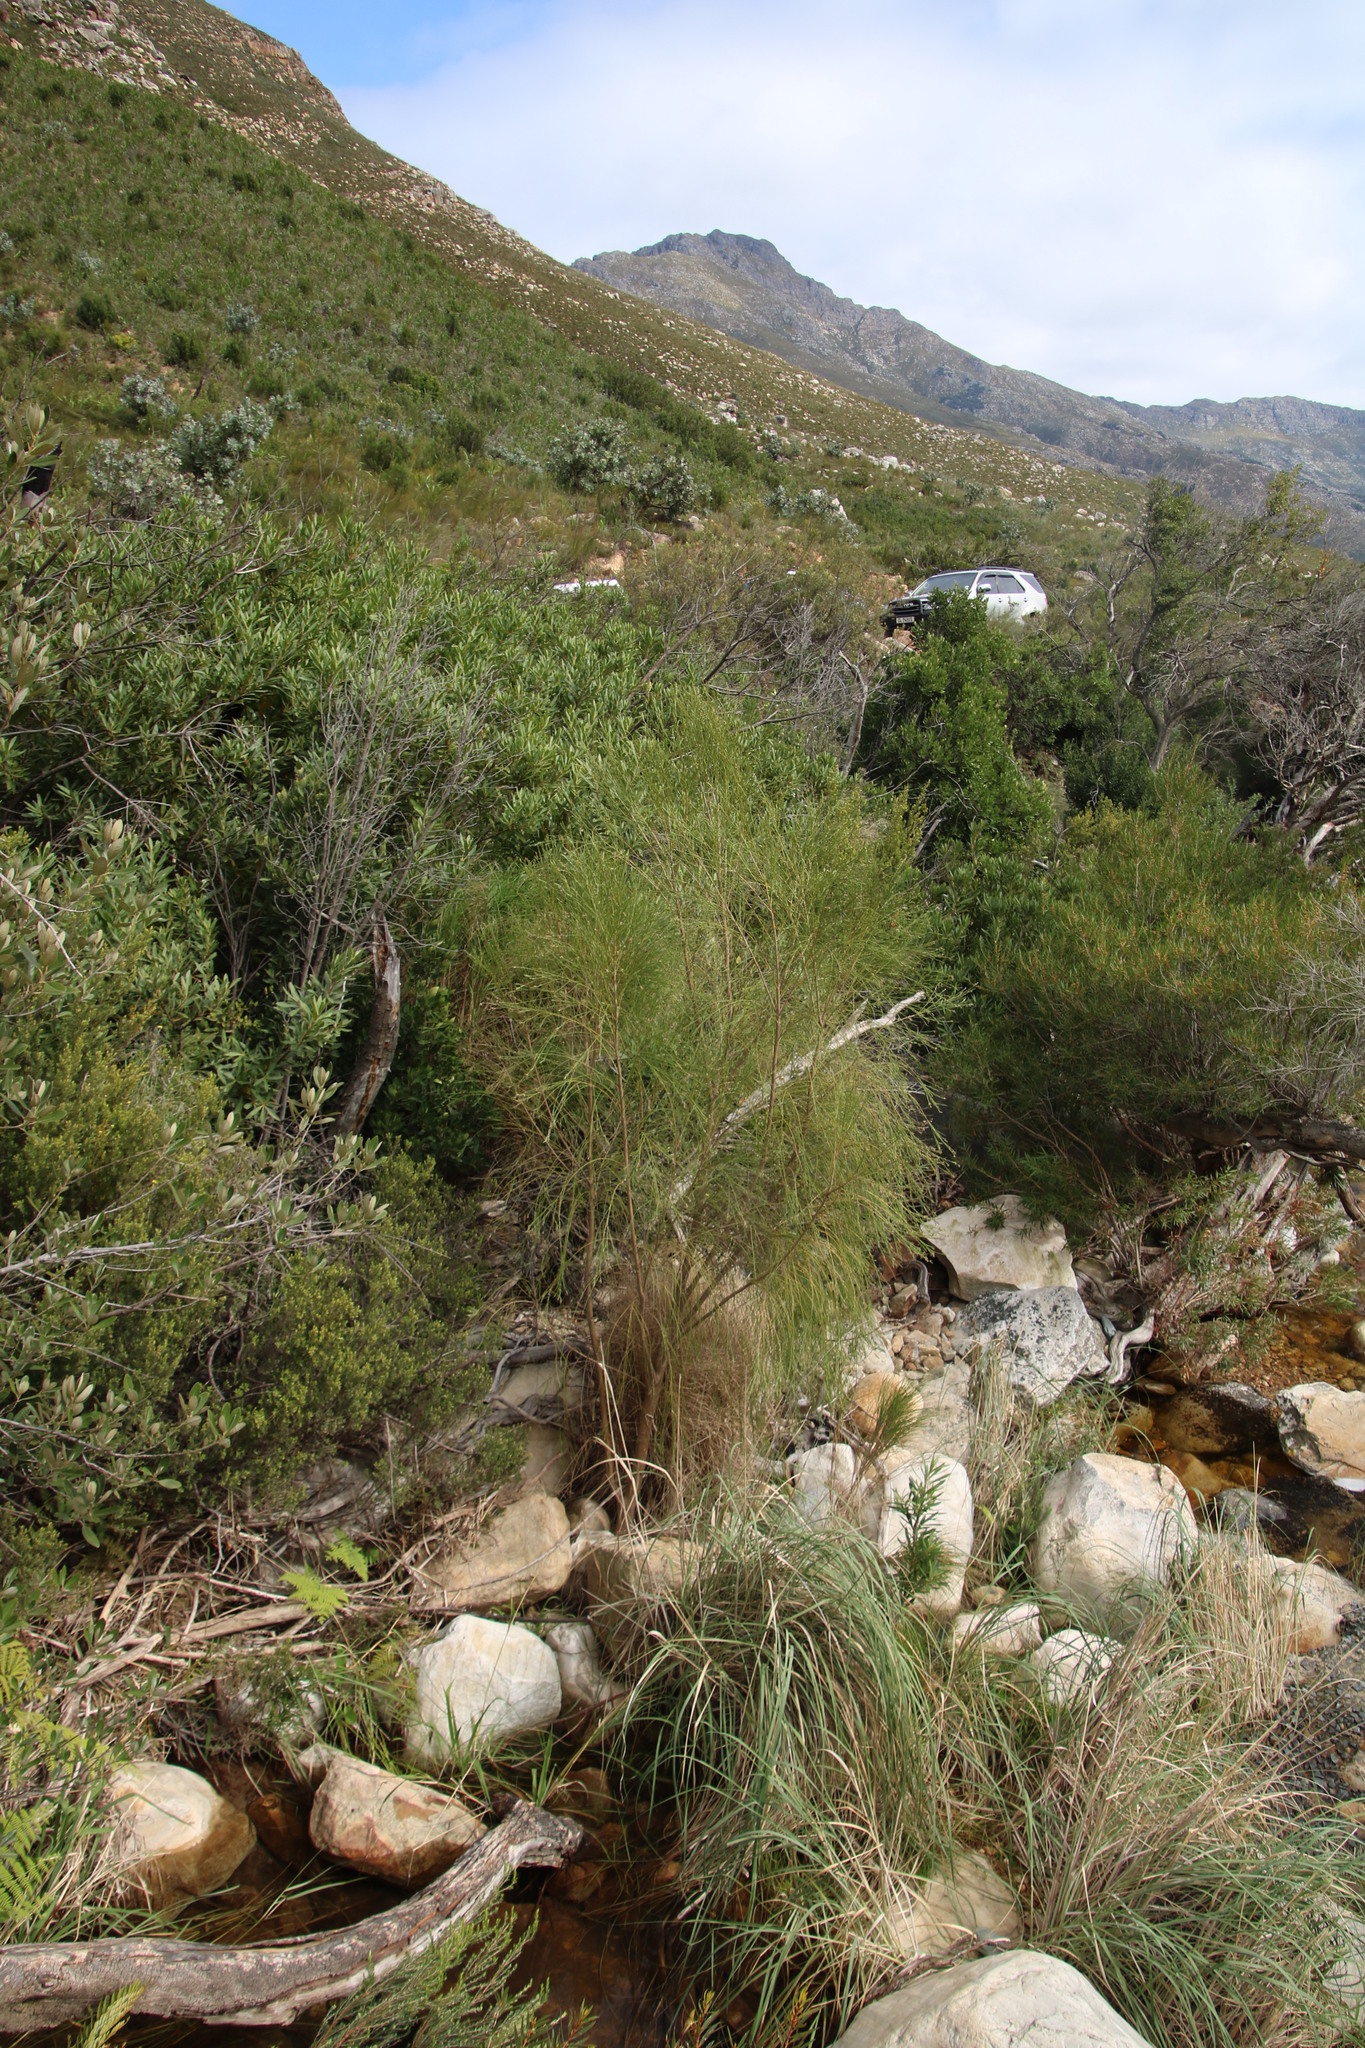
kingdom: Plantae
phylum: Tracheophyta
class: Magnoliopsida
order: Fabales
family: Fabaceae
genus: Psoralea
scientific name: Psoralea gigantea
